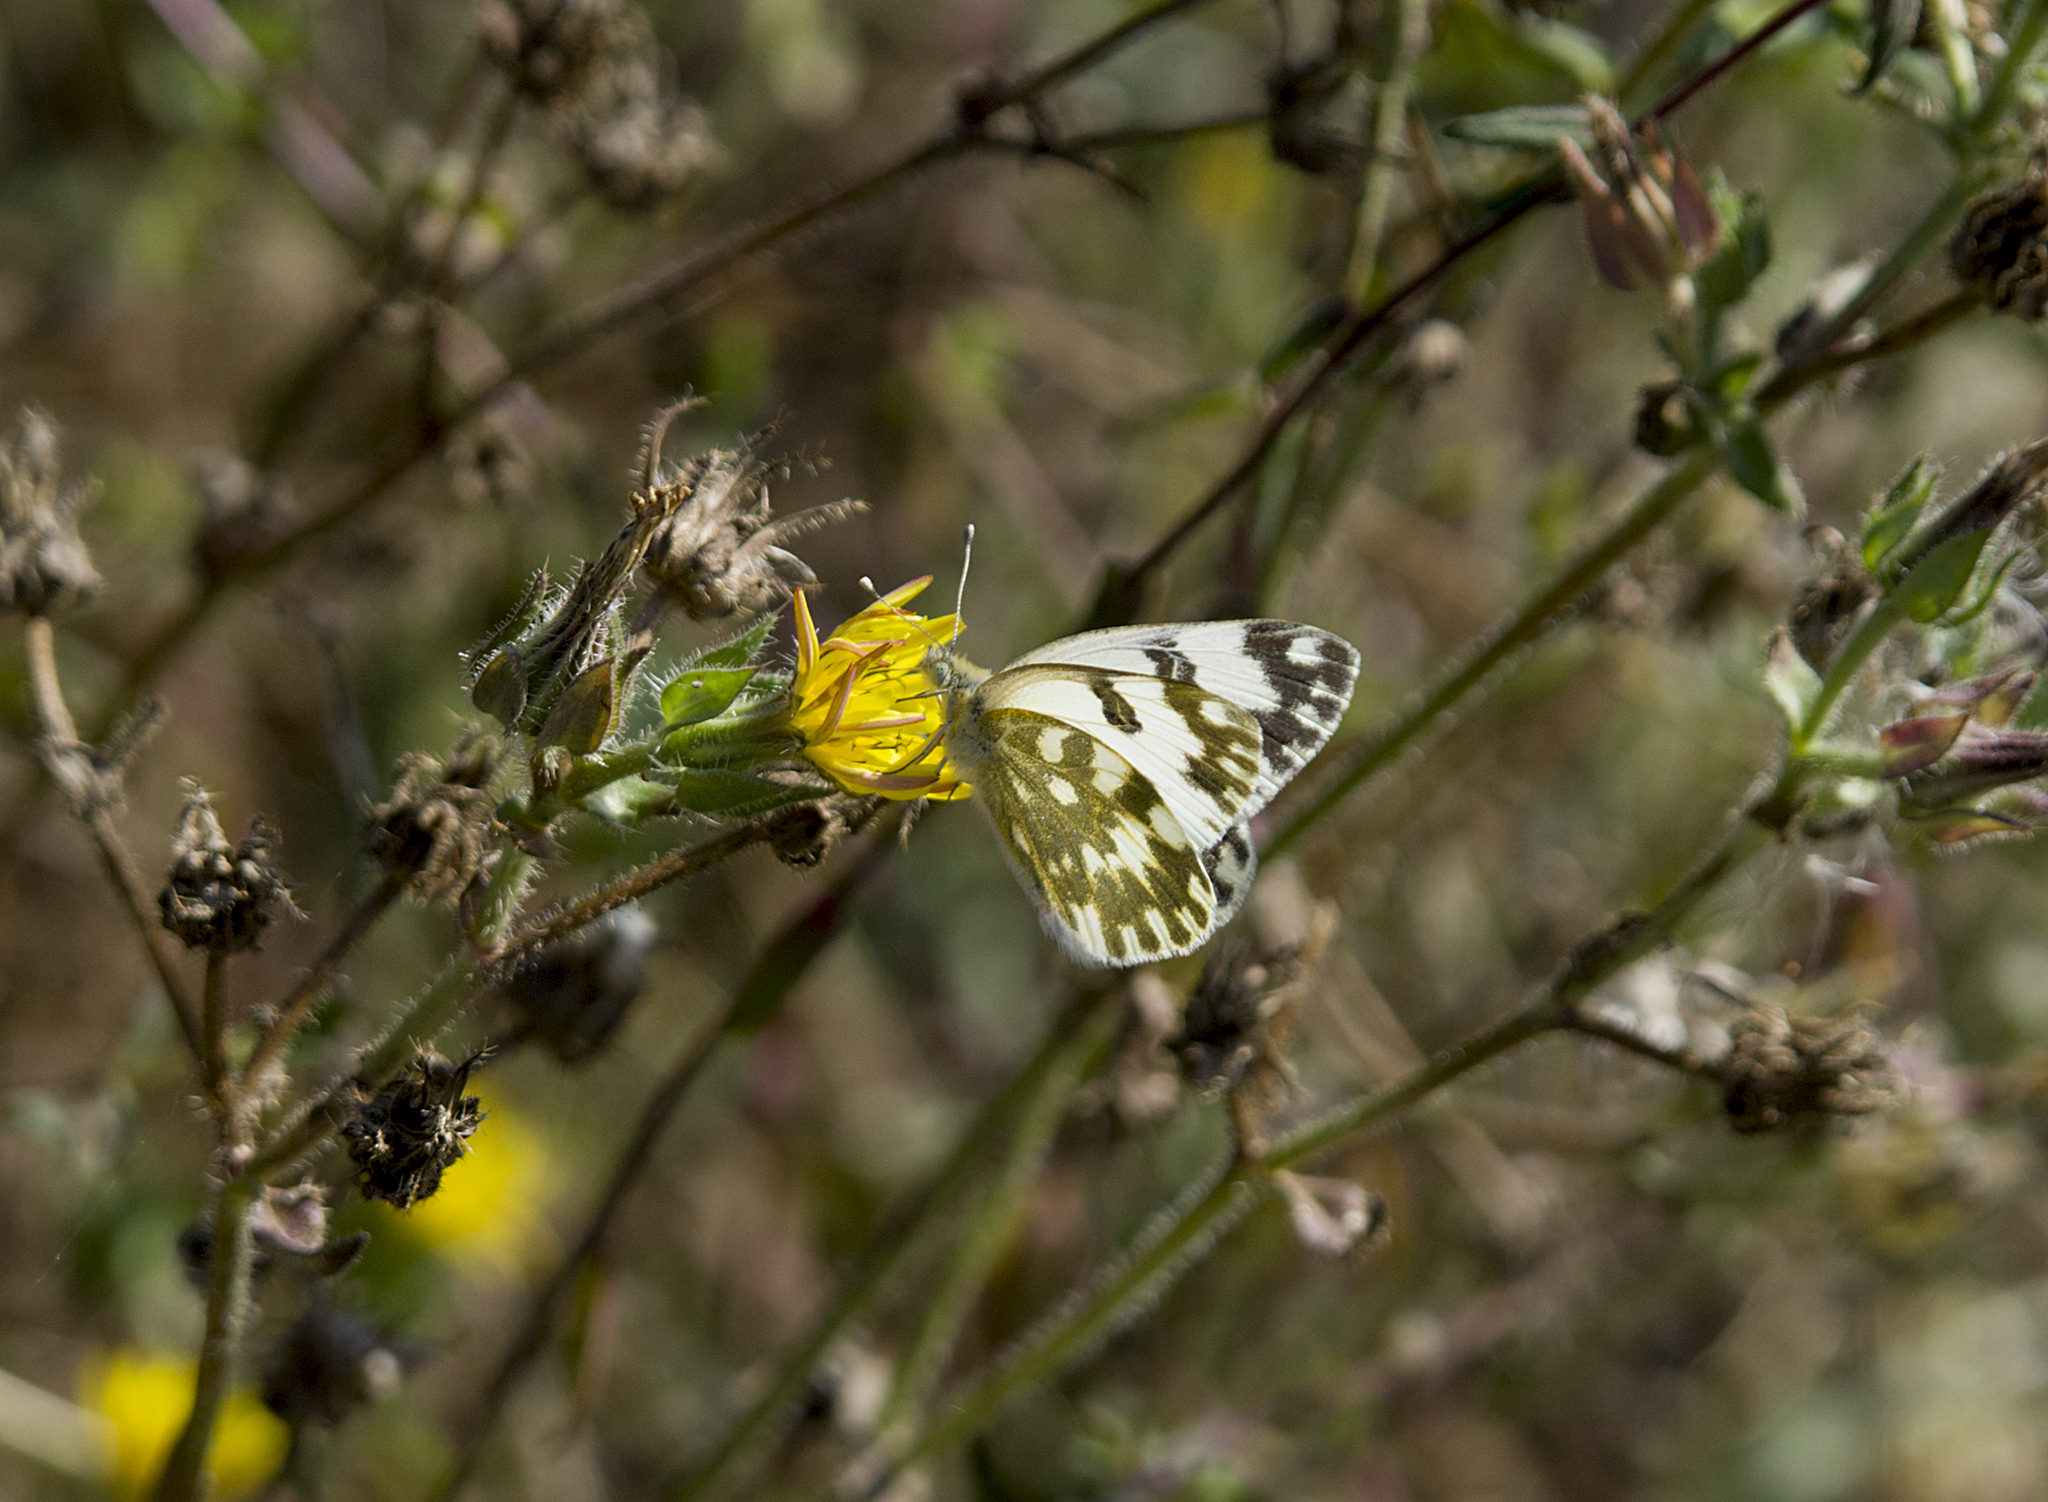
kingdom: Animalia
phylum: Arthropoda
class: Insecta
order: Lepidoptera
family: Pieridae
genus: Pontia
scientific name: Pontia edusa
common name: Eastern bath white
